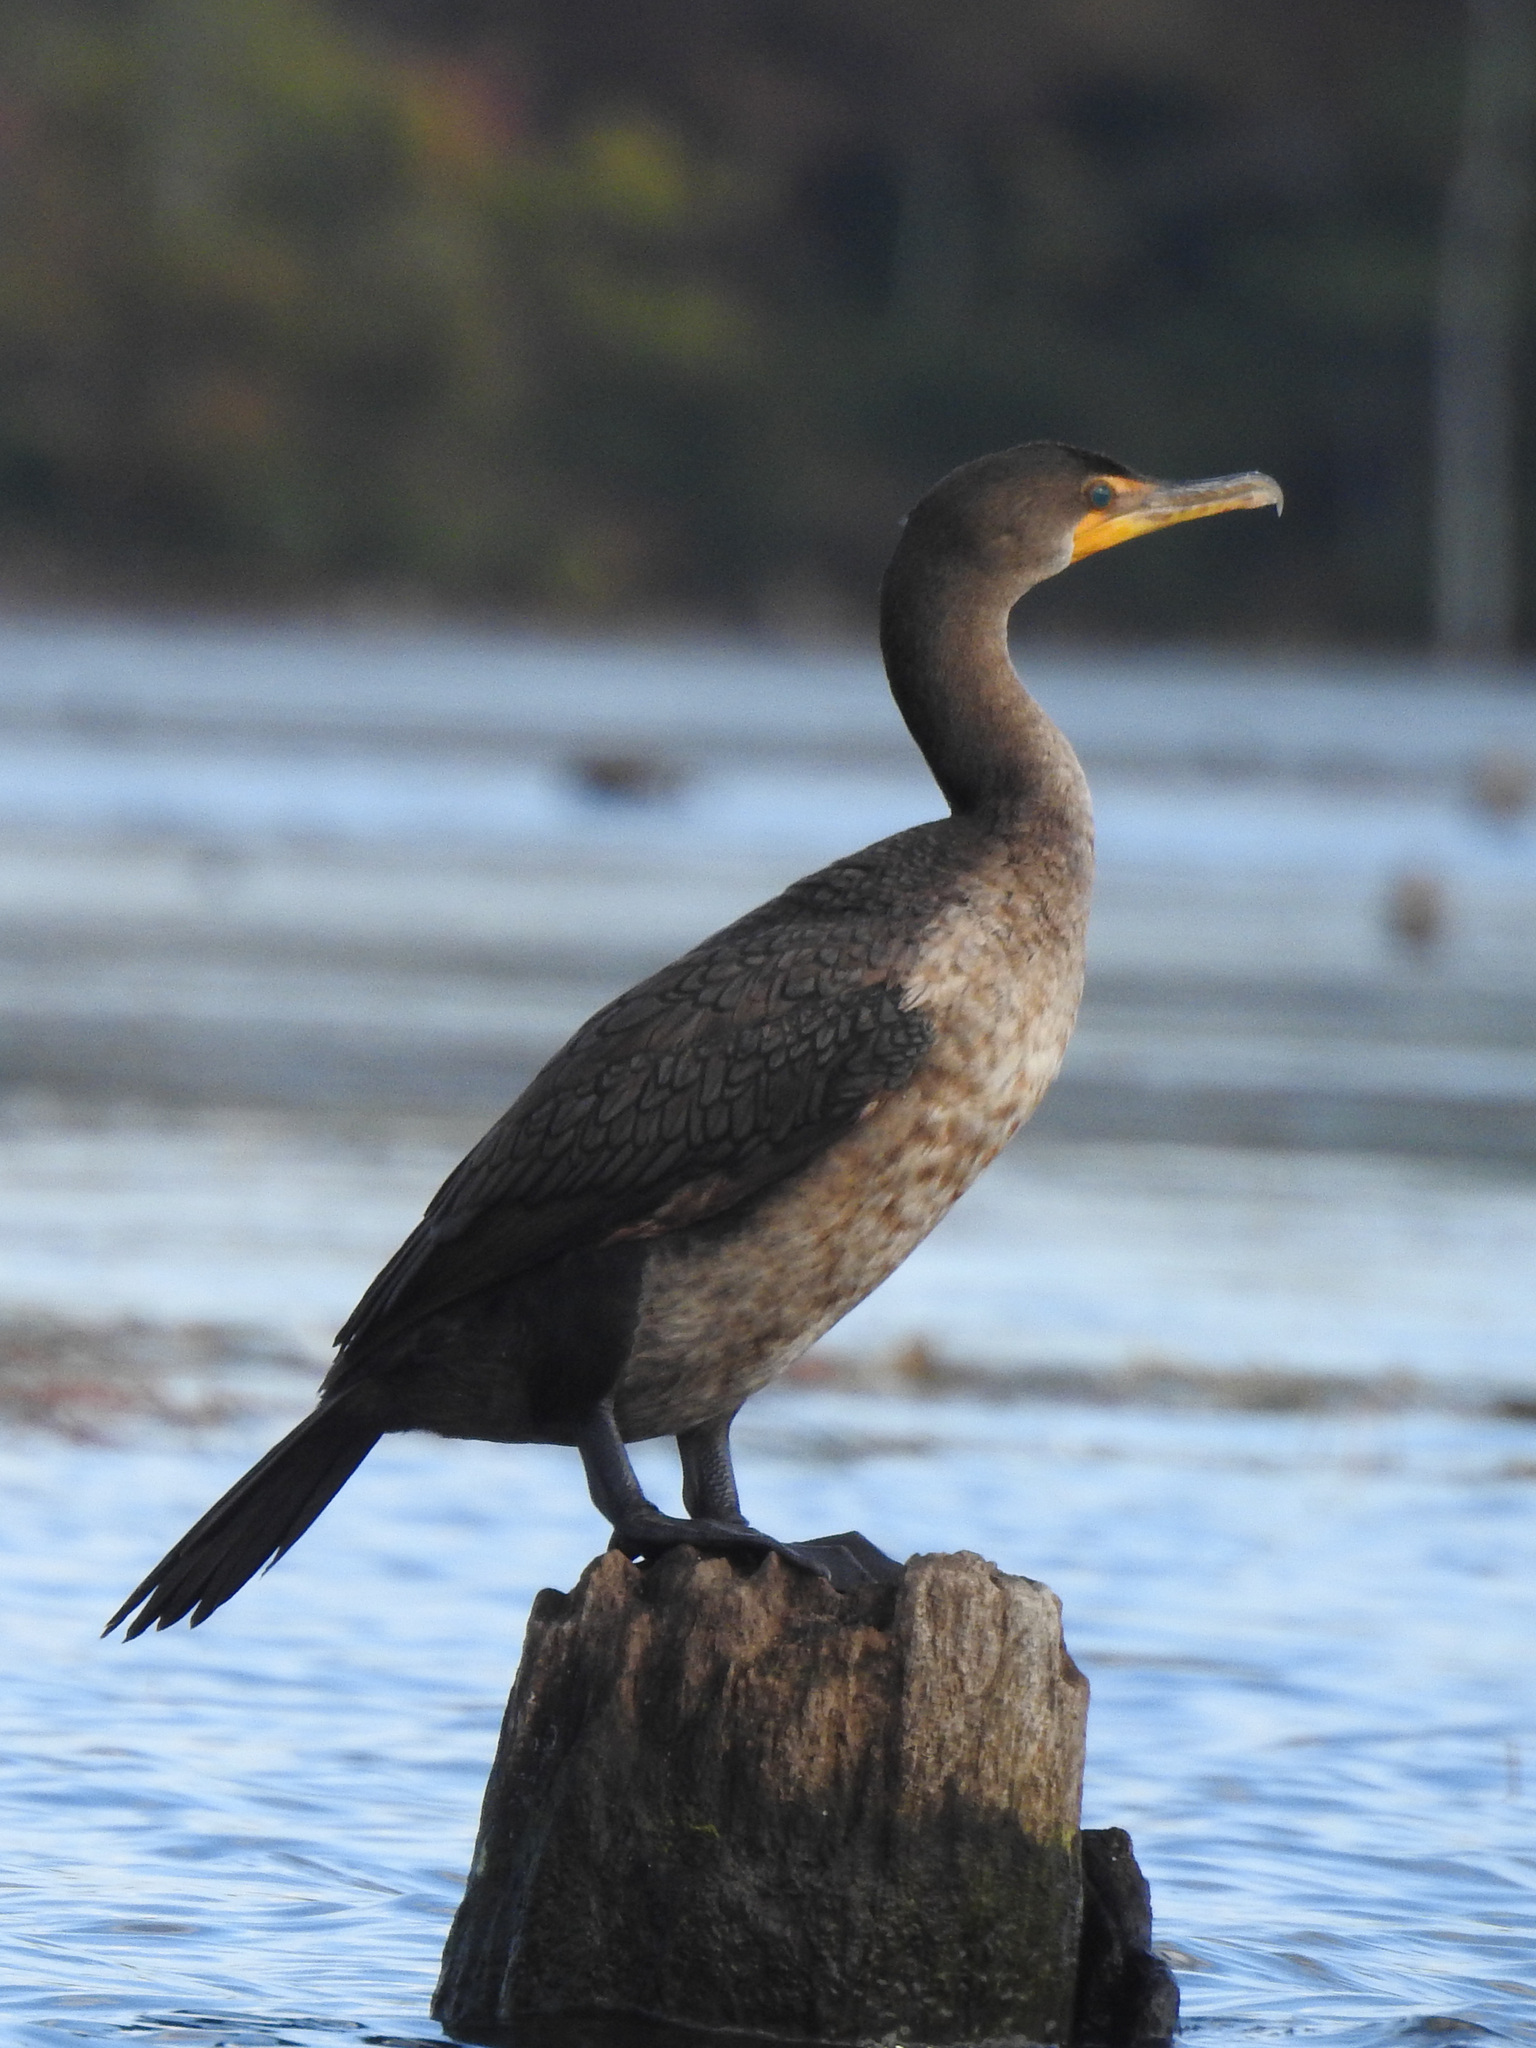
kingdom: Animalia
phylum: Chordata
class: Aves
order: Suliformes
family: Phalacrocoracidae
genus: Phalacrocorax
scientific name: Phalacrocorax auritus
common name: Double-crested cormorant
